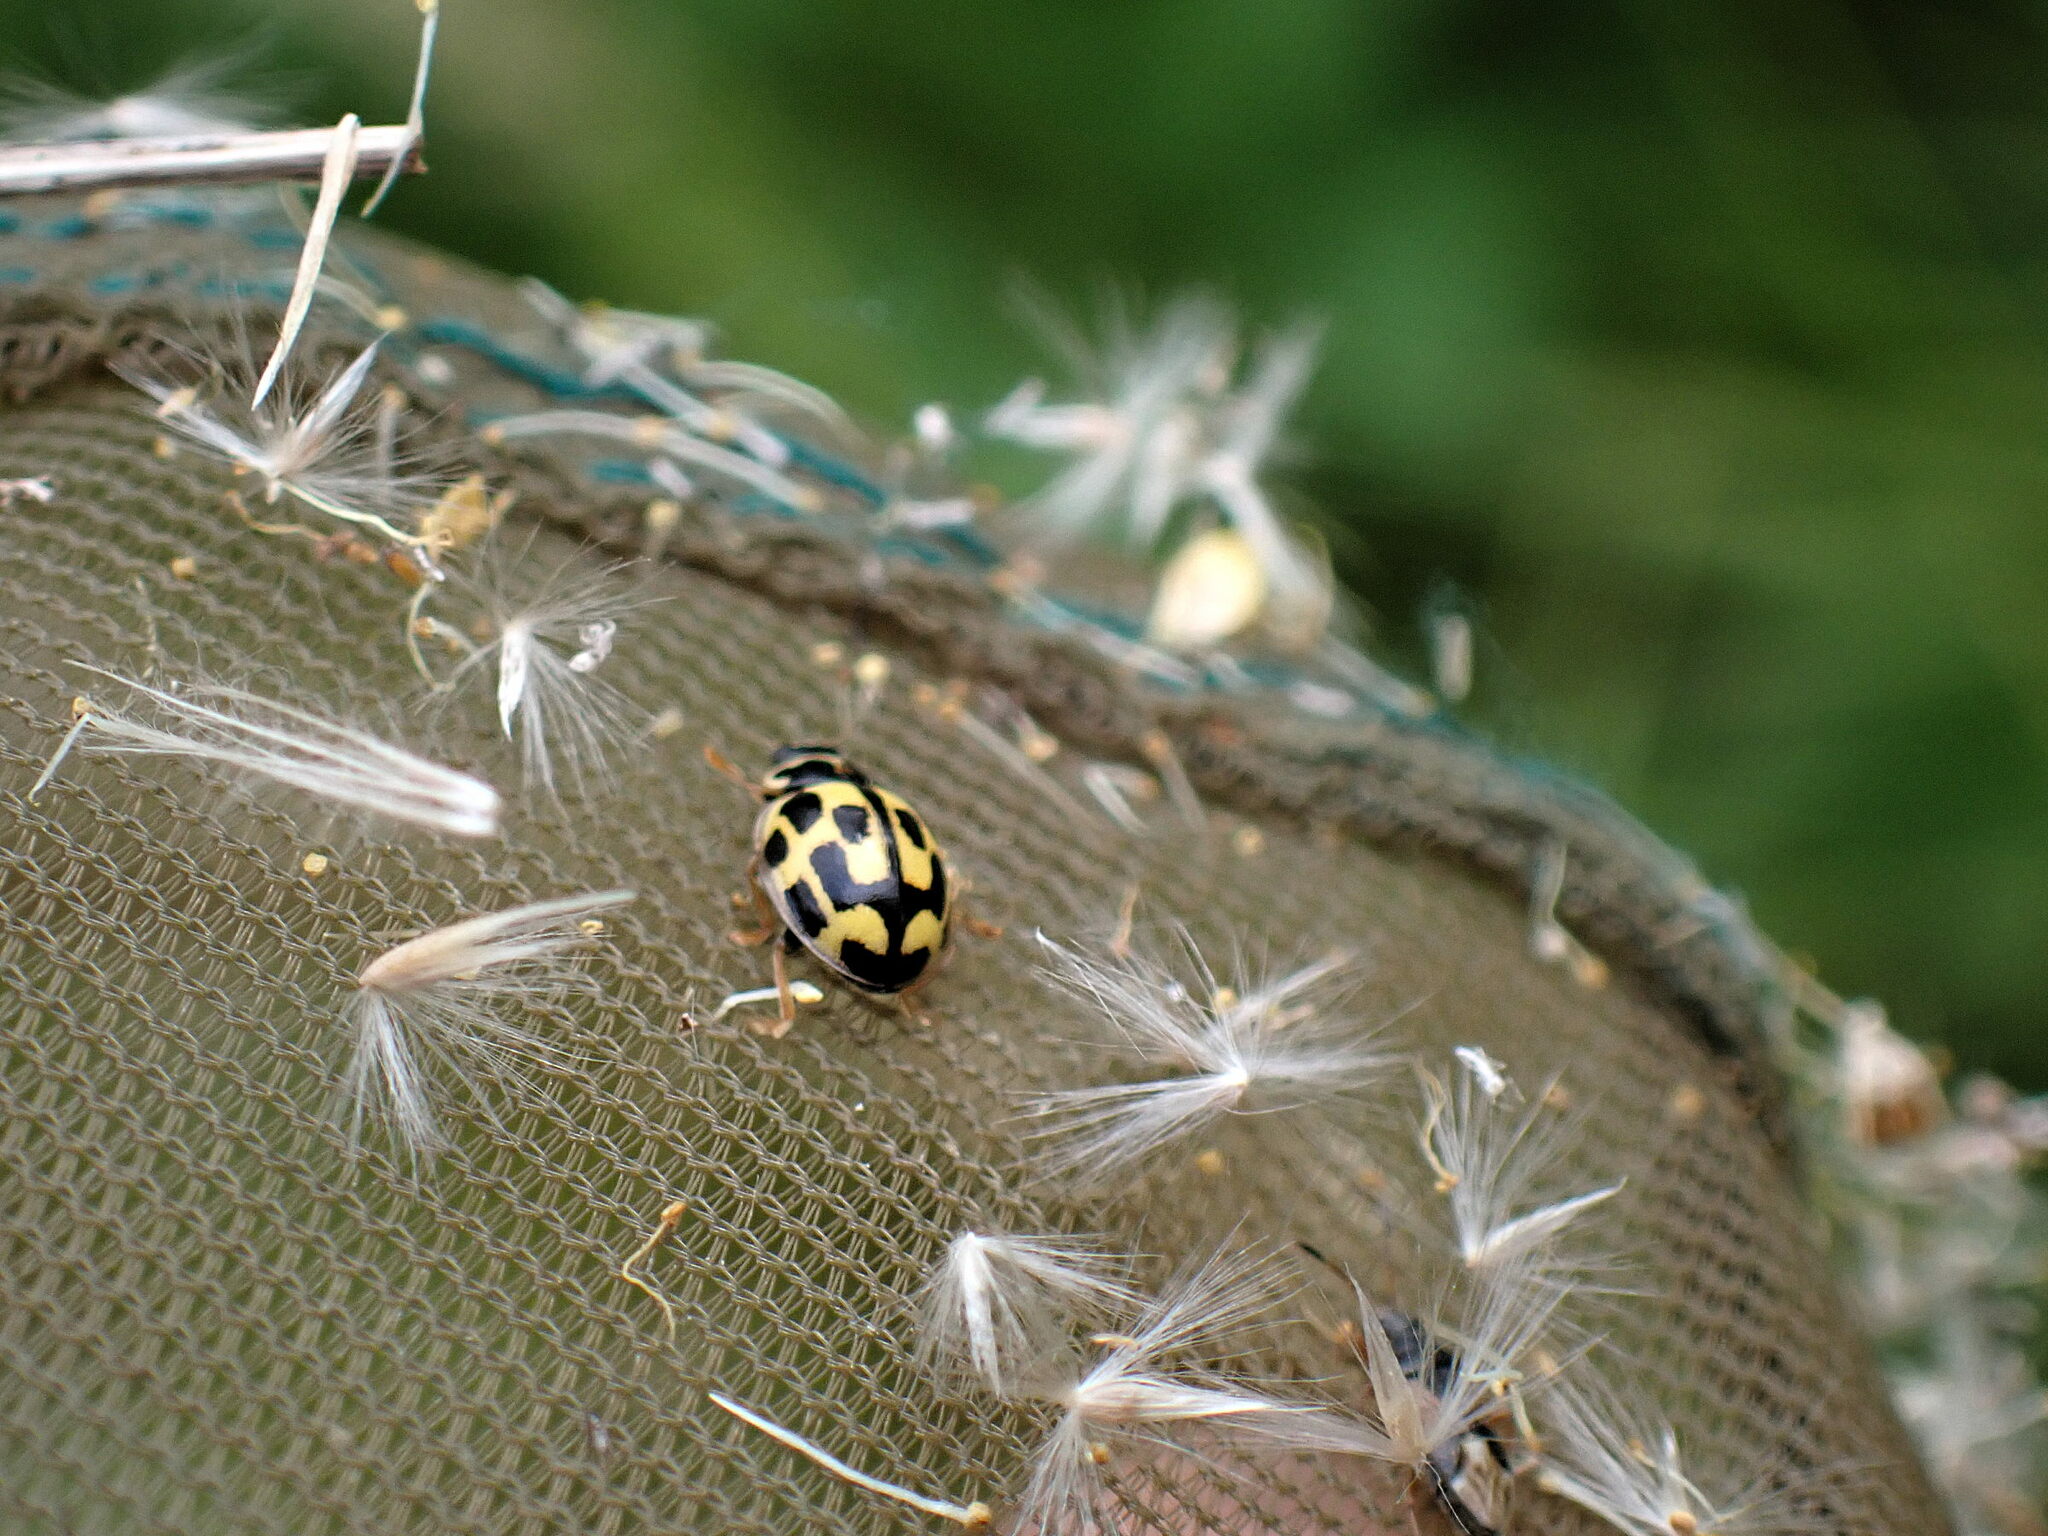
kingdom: Animalia
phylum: Arthropoda
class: Insecta
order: Coleoptera
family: Coccinellidae
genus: Propylaea
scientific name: Propylaea quatuordecimpunctata
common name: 14-spotted ladybird beetle
